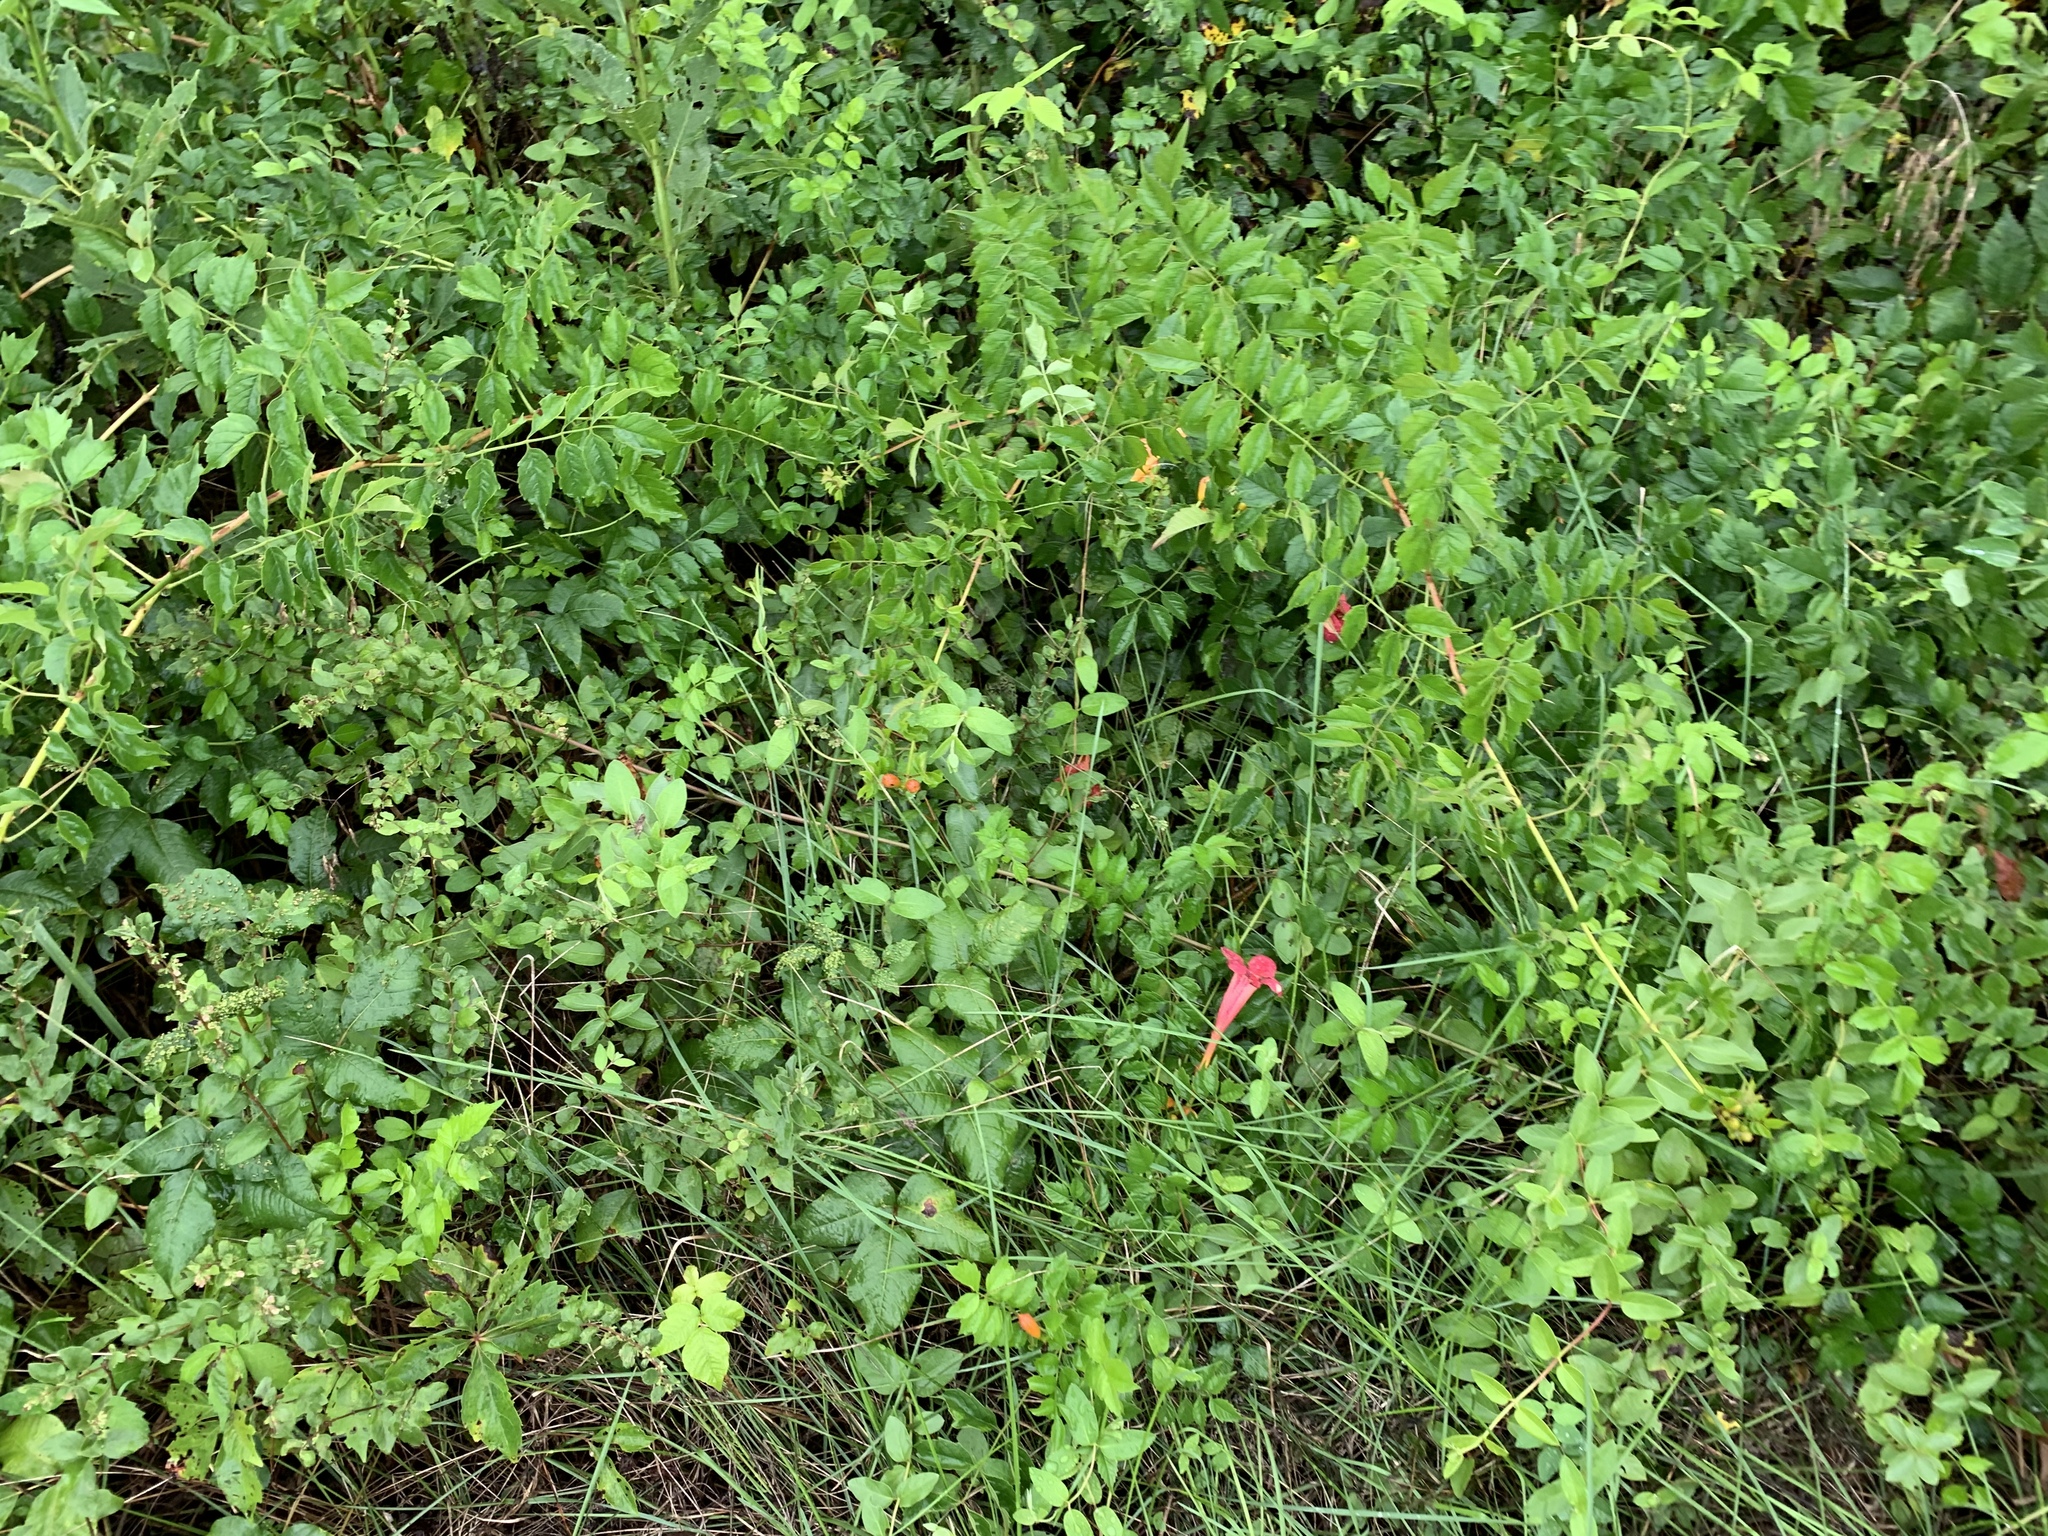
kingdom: Plantae
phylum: Tracheophyta
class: Magnoliopsida
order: Lamiales
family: Bignoniaceae
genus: Campsis
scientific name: Campsis radicans
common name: Trumpet-creeper
